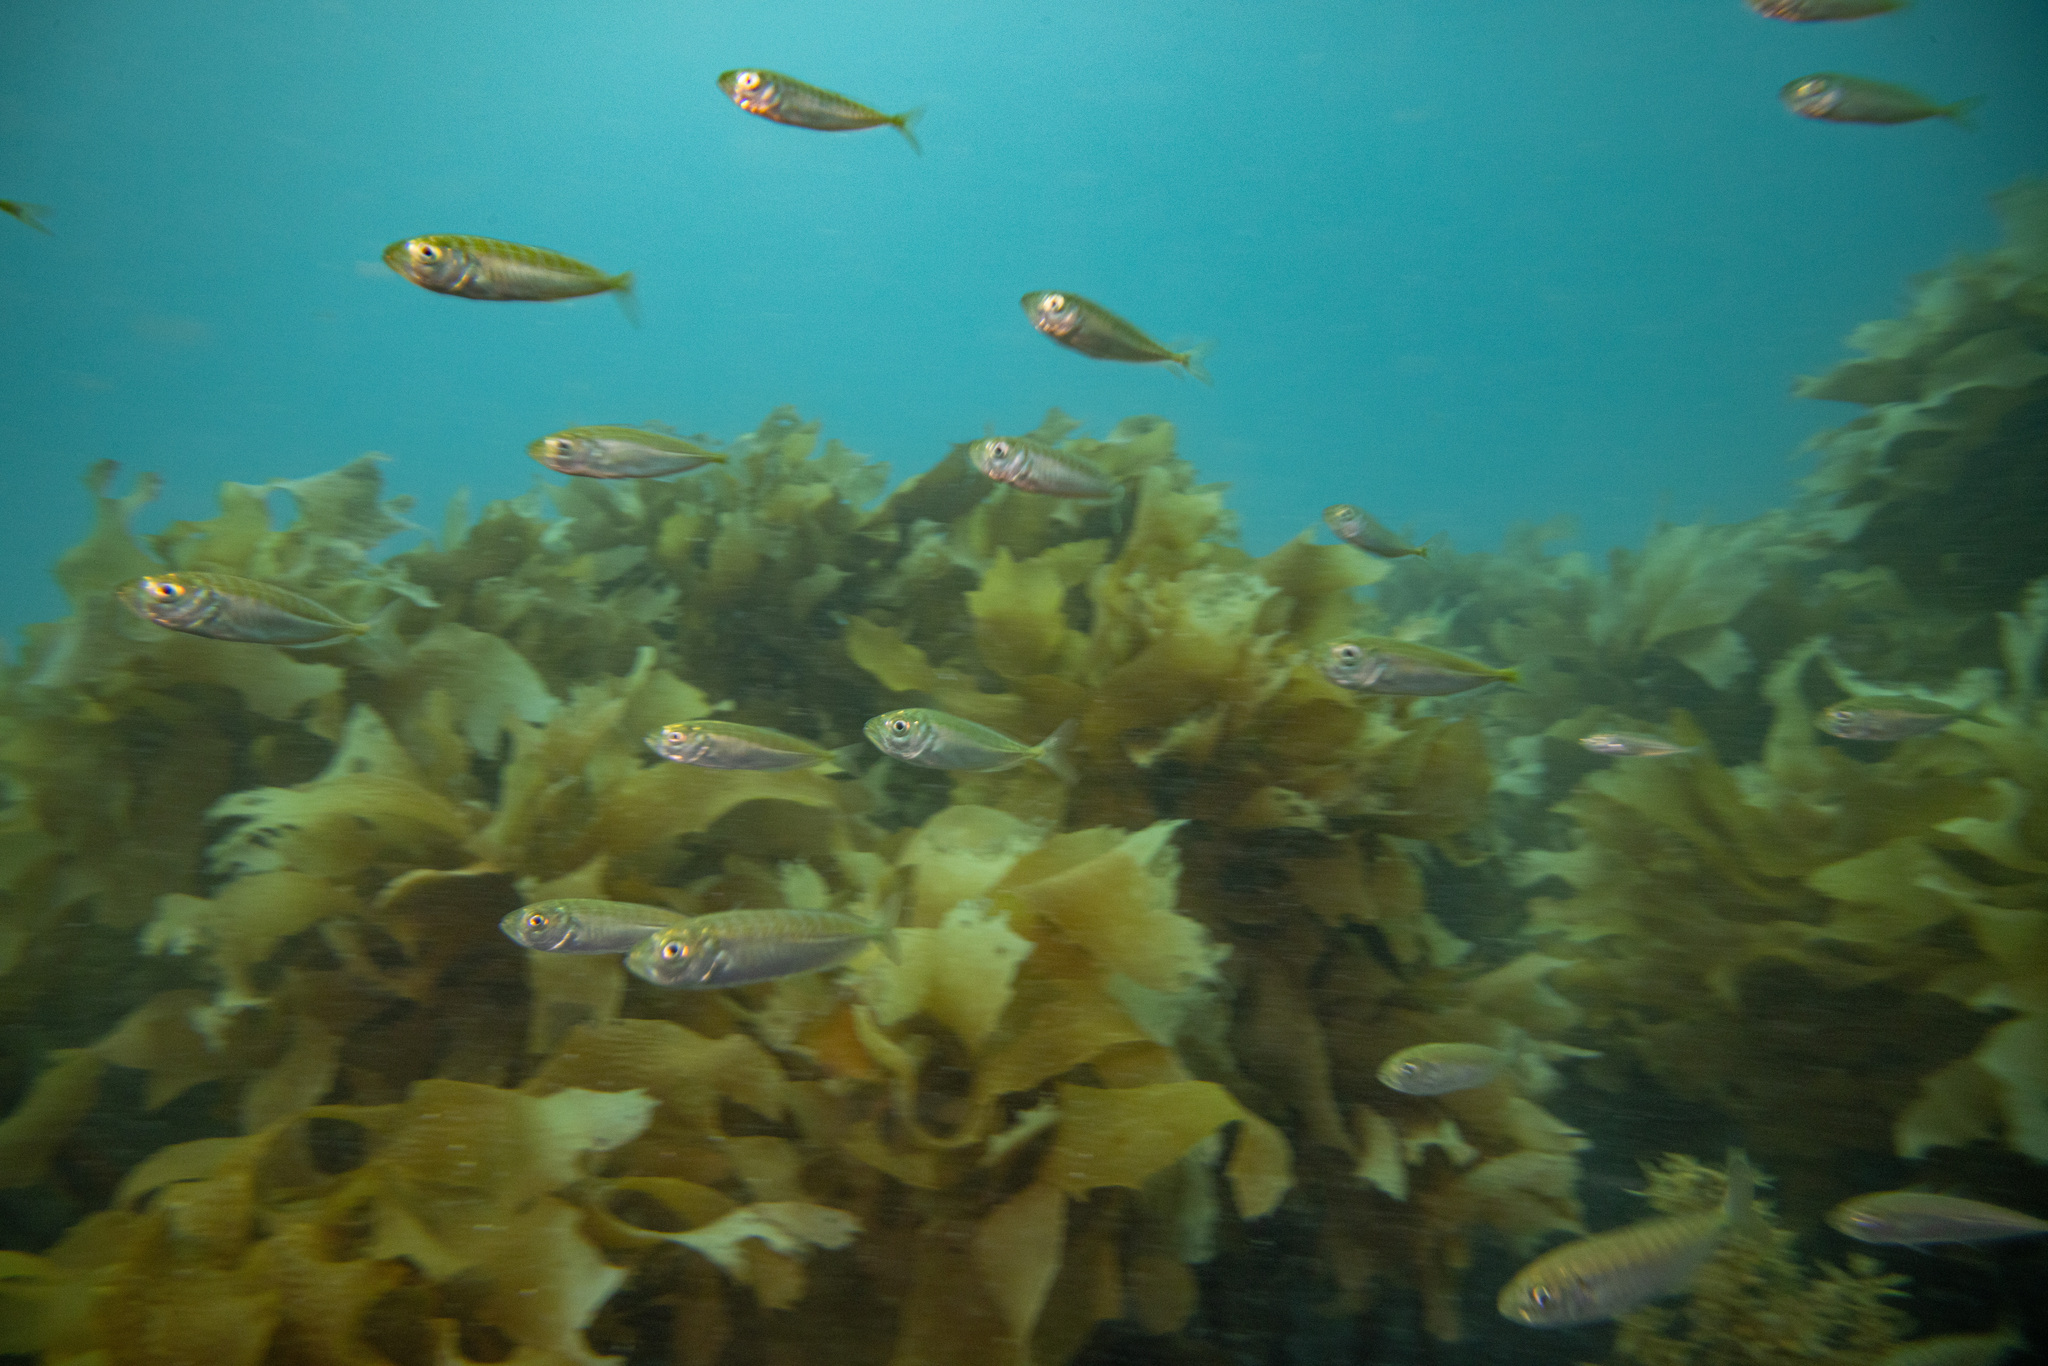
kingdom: Animalia
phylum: Chordata
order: Perciformes
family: Carangidae
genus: Trachurus
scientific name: Trachurus
